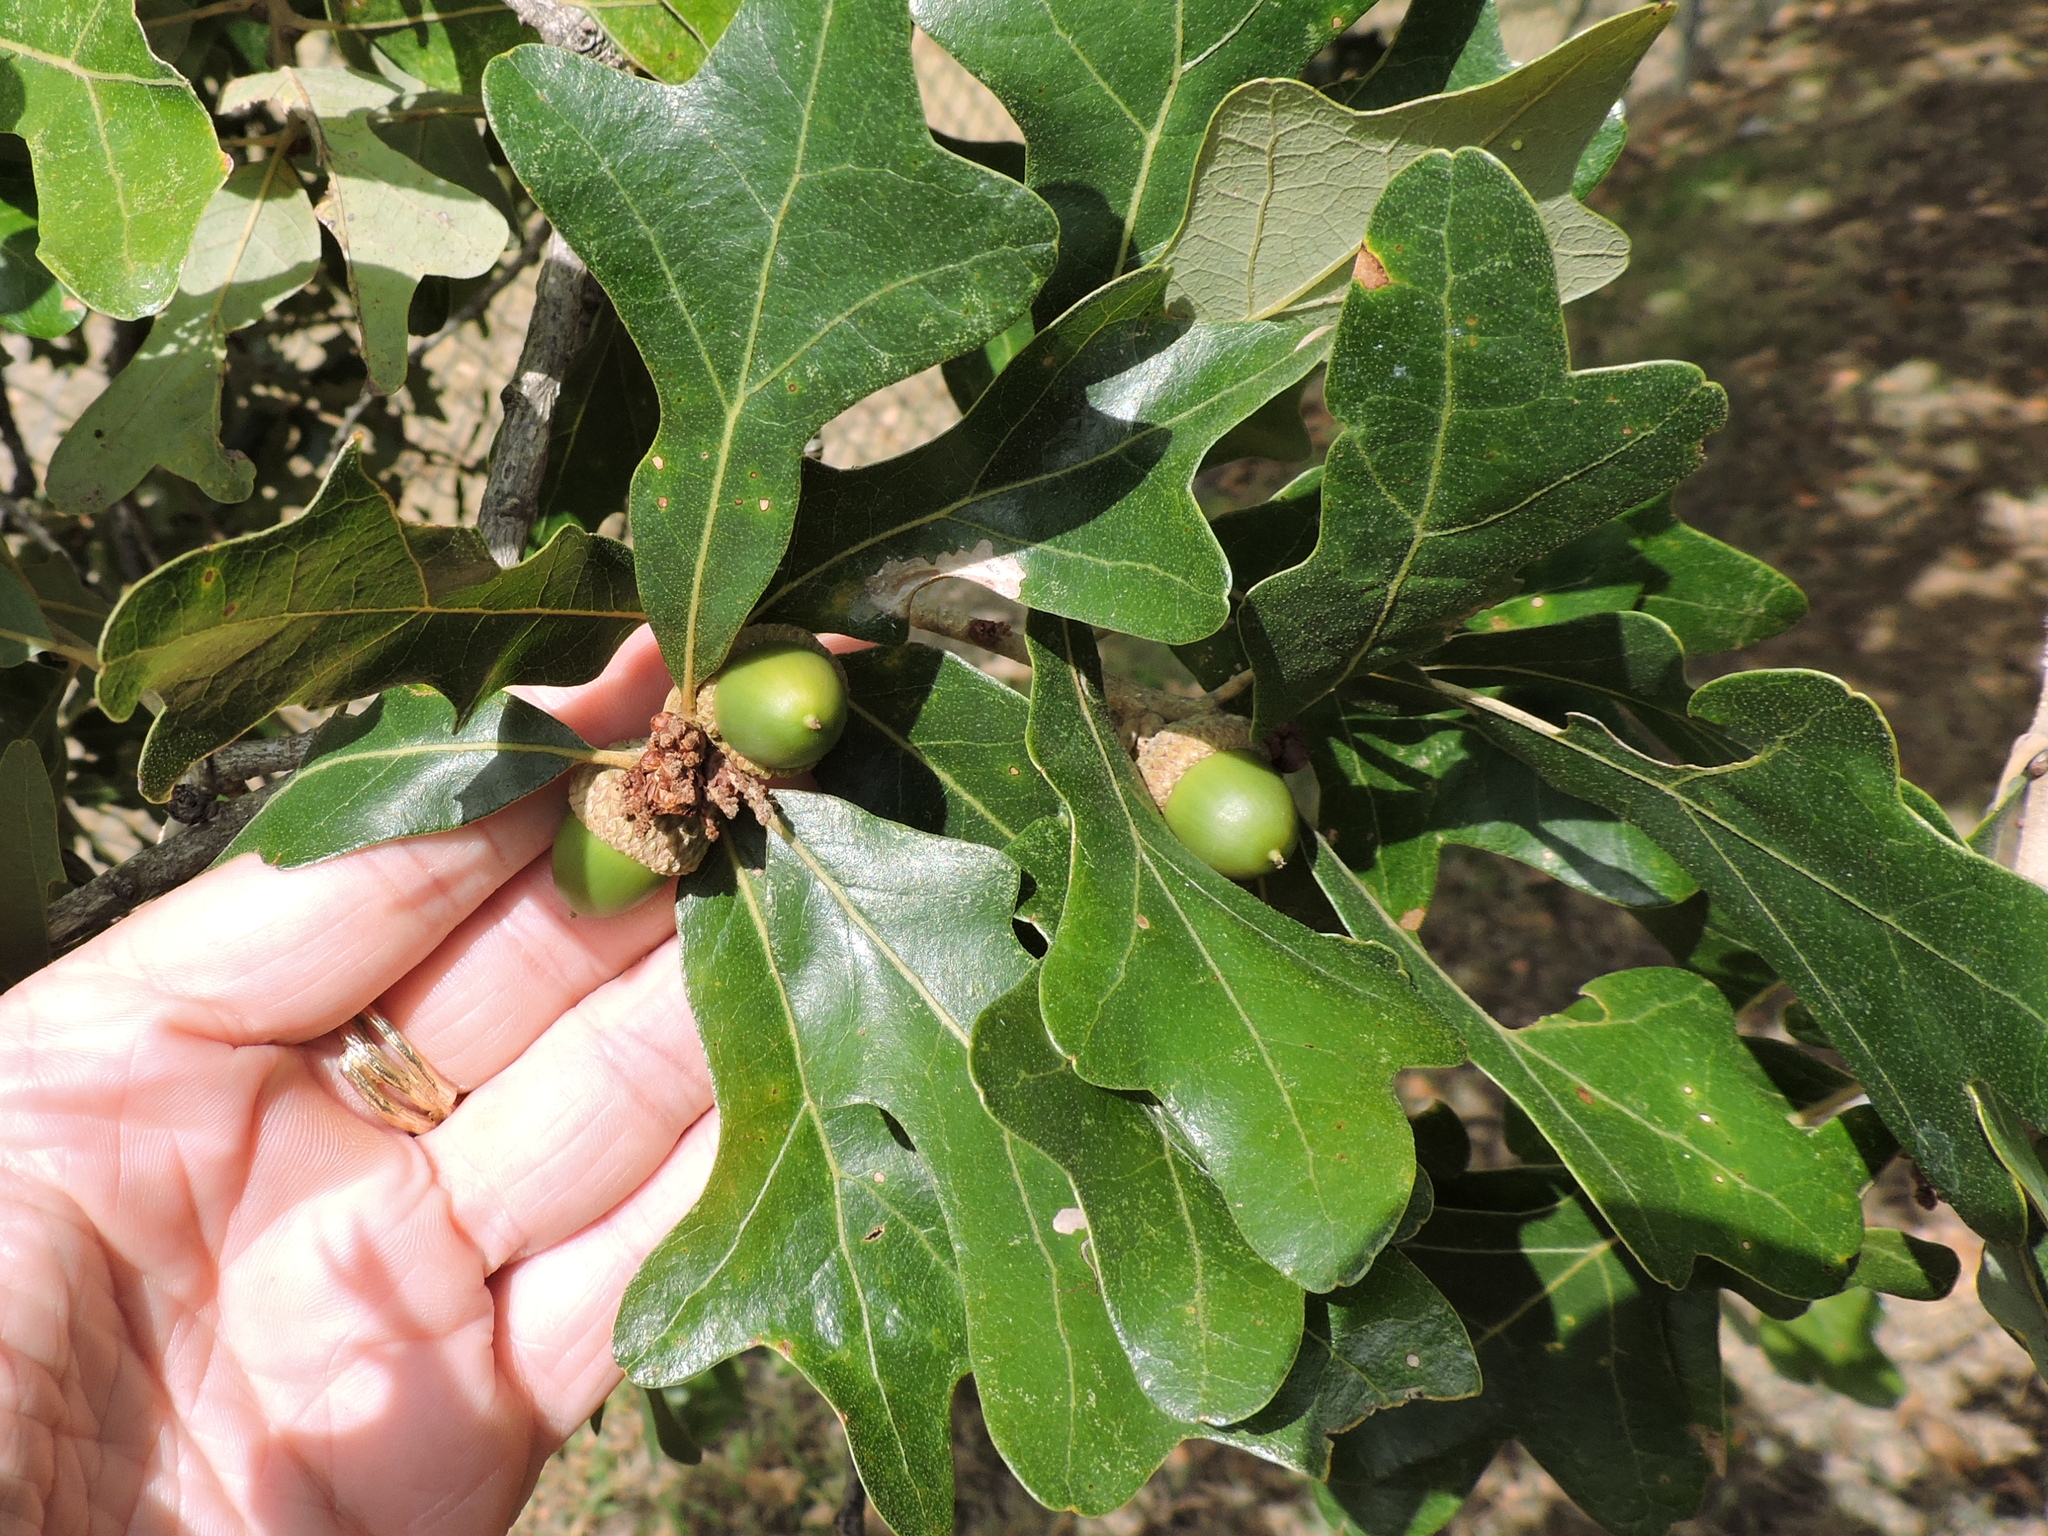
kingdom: Plantae
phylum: Tracheophyta
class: Magnoliopsida
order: Fagales
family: Fagaceae
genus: Quercus
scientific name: Quercus stellata
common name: Post oak
